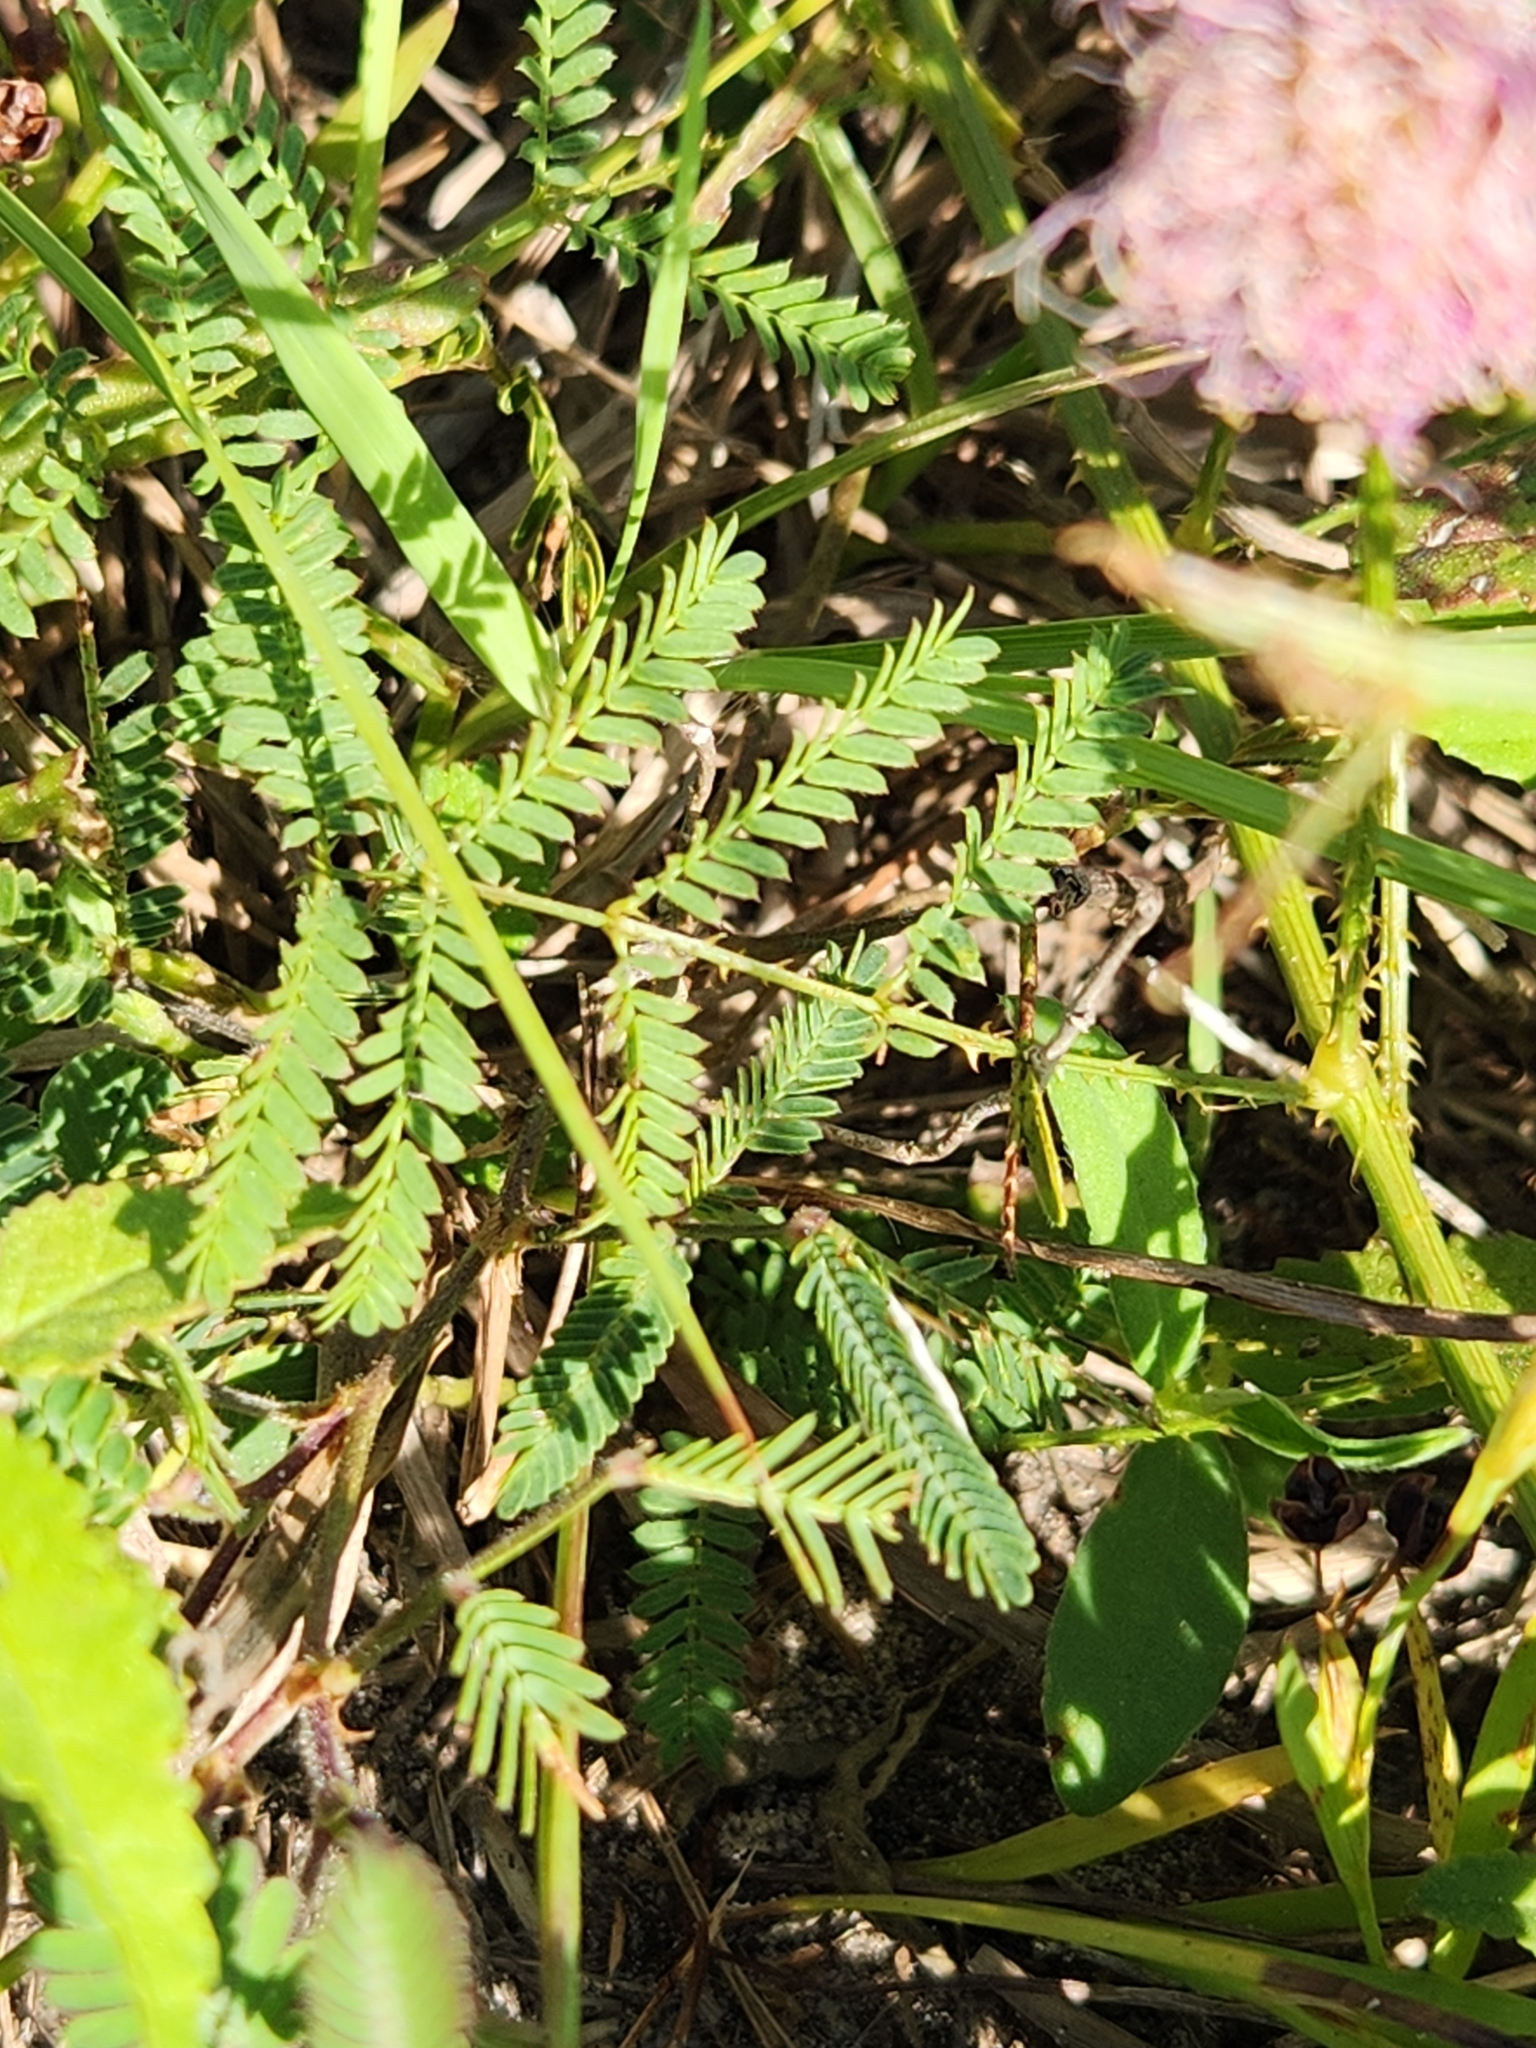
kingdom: Plantae
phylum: Tracheophyta
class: Magnoliopsida
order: Fabales
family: Fabaceae
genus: Mimosa
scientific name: Mimosa quadrivalvis
